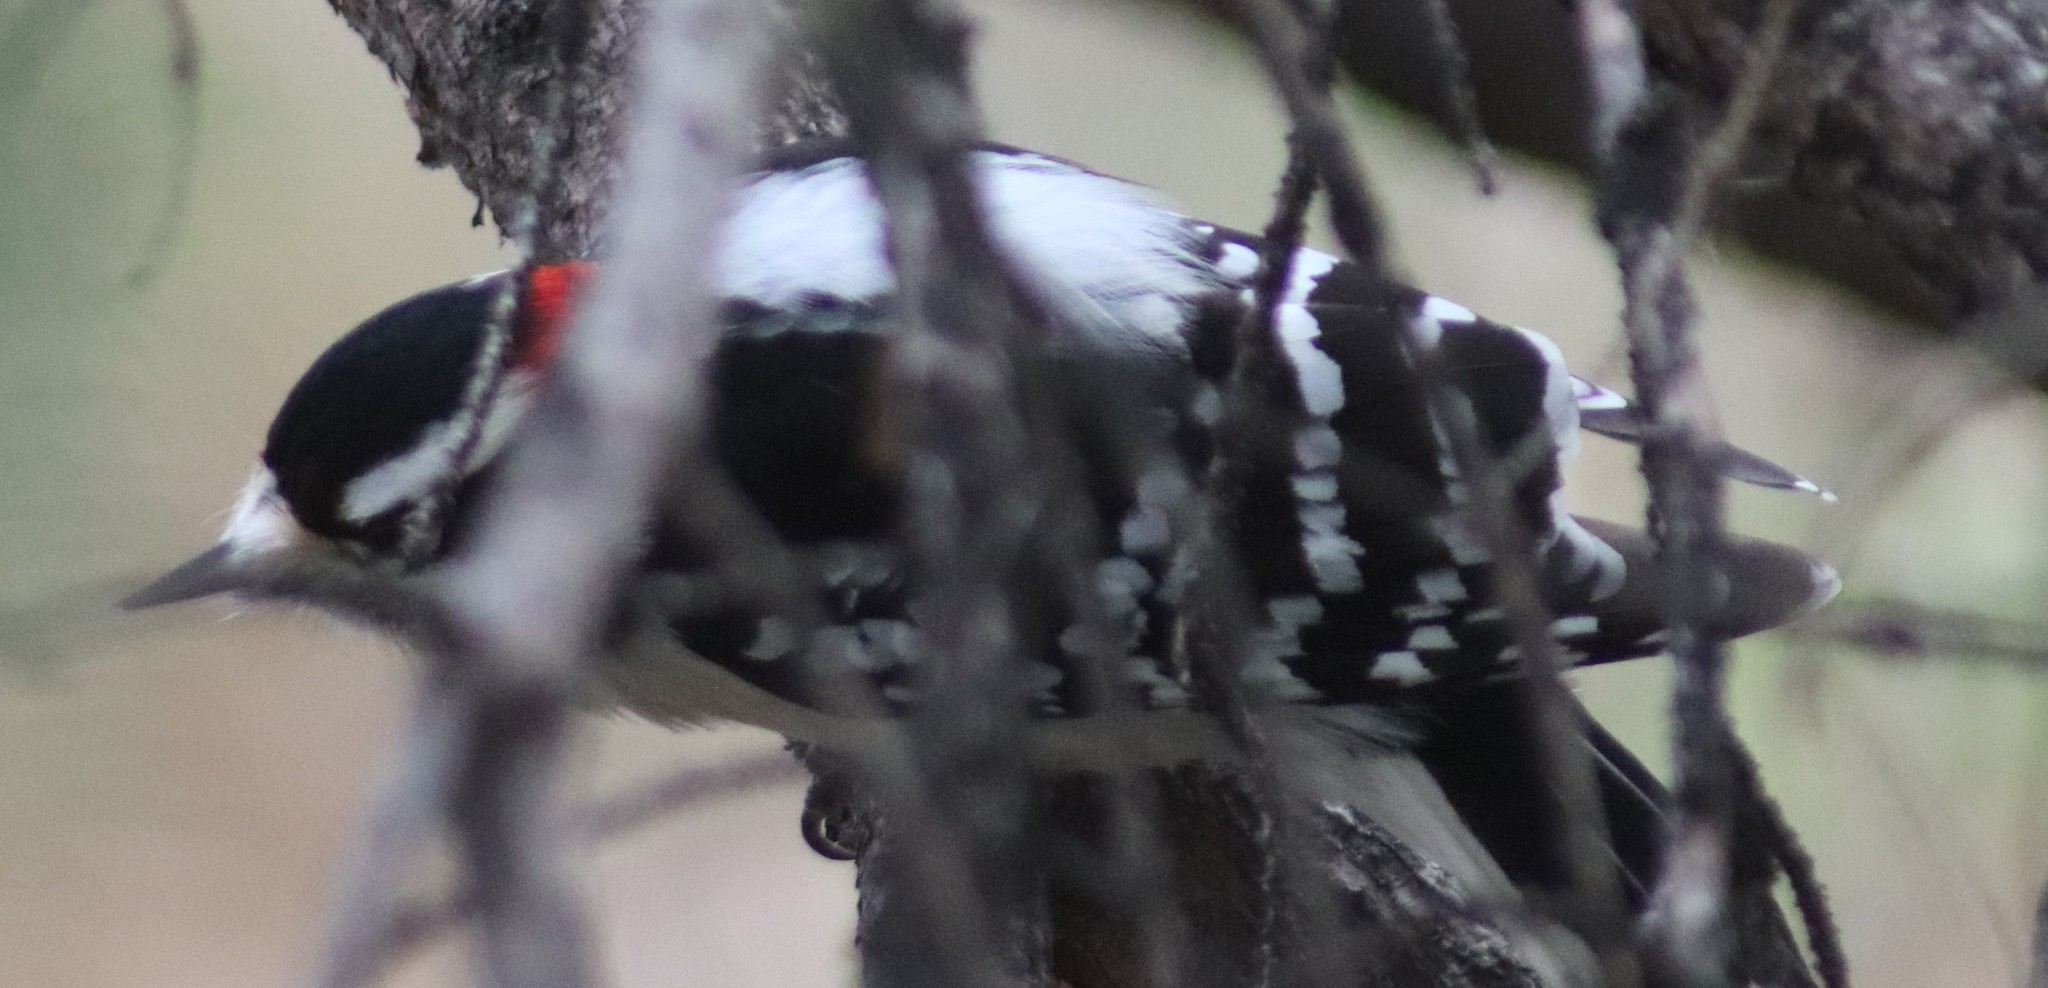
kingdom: Animalia
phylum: Chordata
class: Aves
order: Piciformes
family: Picidae
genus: Dryobates
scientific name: Dryobates pubescens
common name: Downy woodpecker
